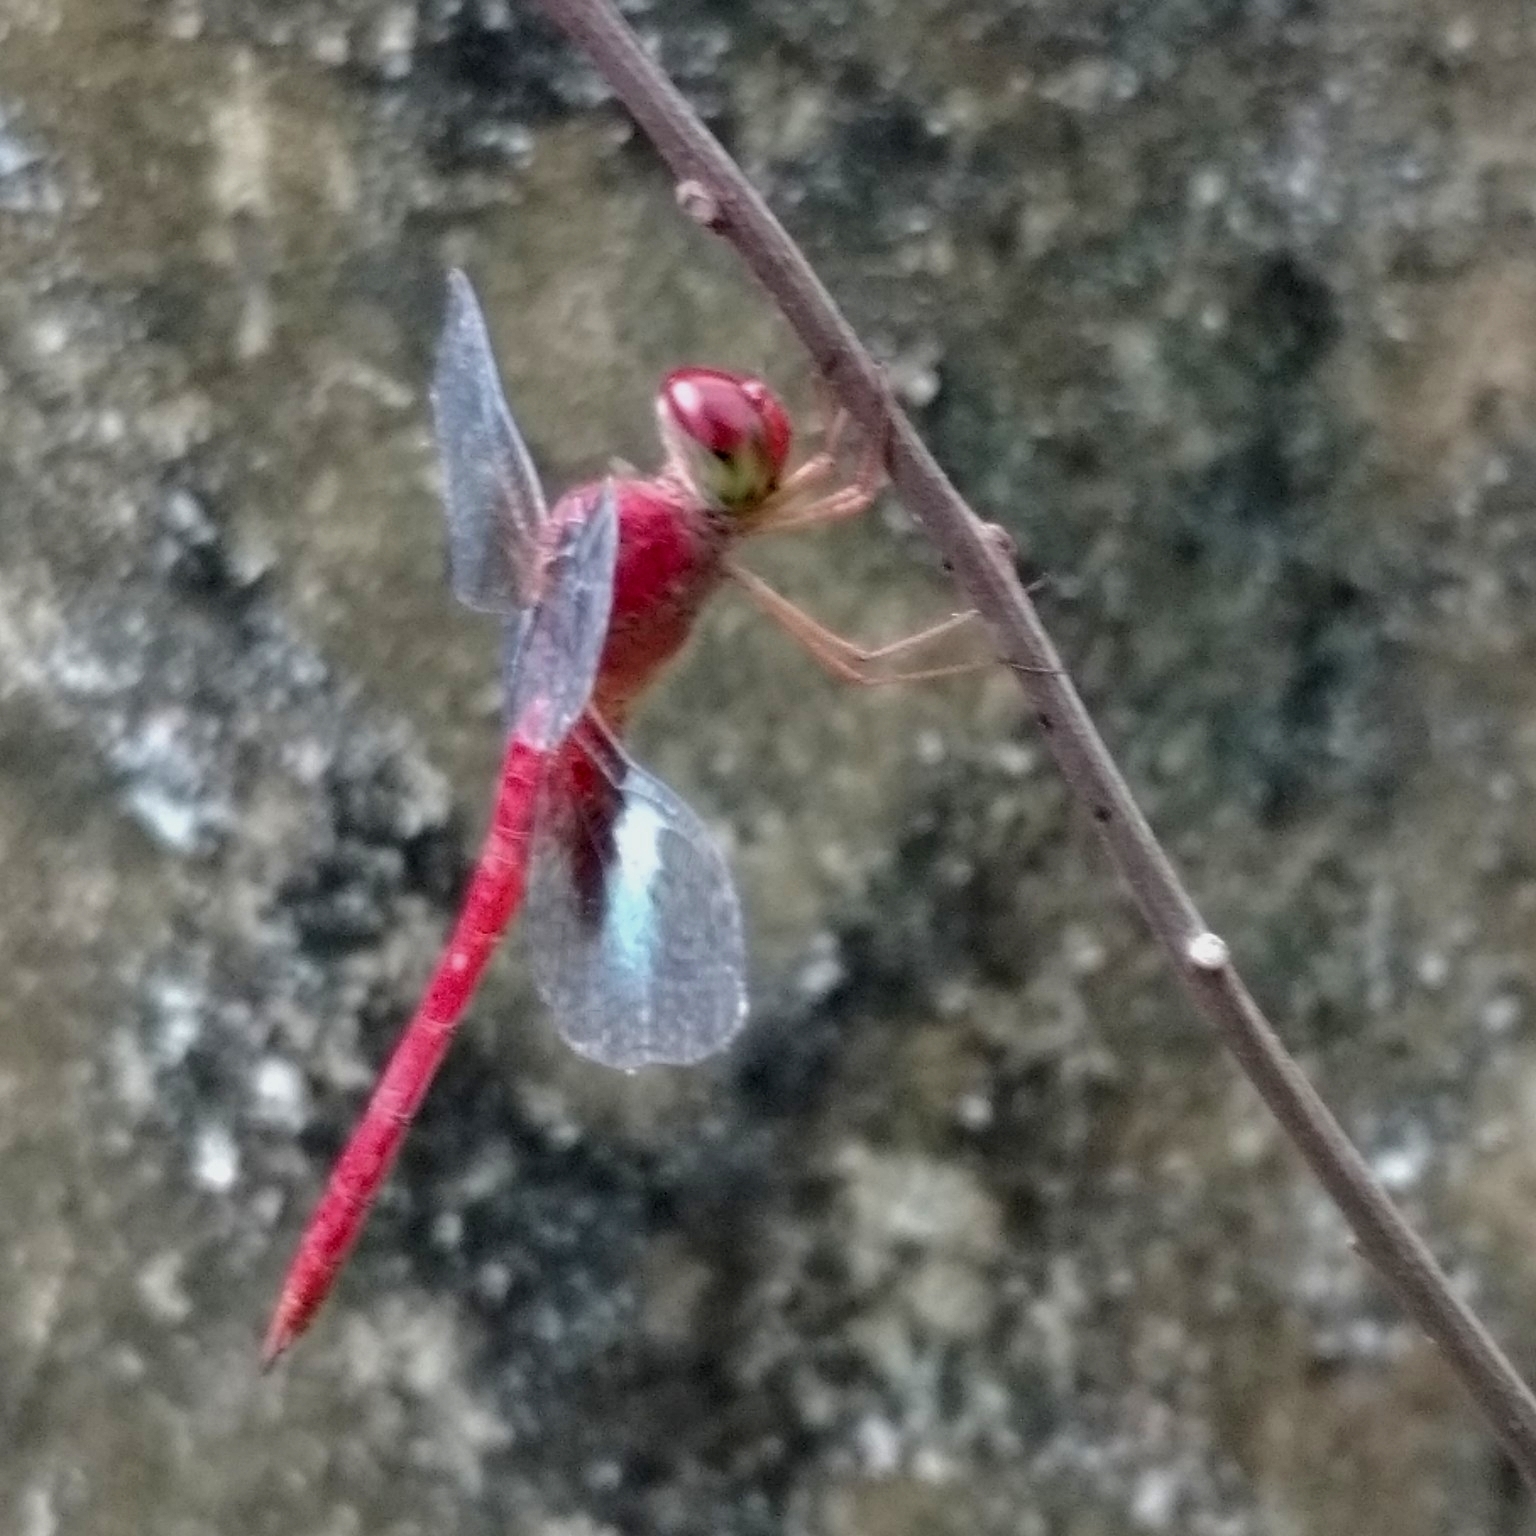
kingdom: Animalia
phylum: Arthropoda
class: Insecta
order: Odonata
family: Libellulidae
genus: Tholymis
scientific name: Tholymis tillarga
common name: Coral-tailed cloud wing
